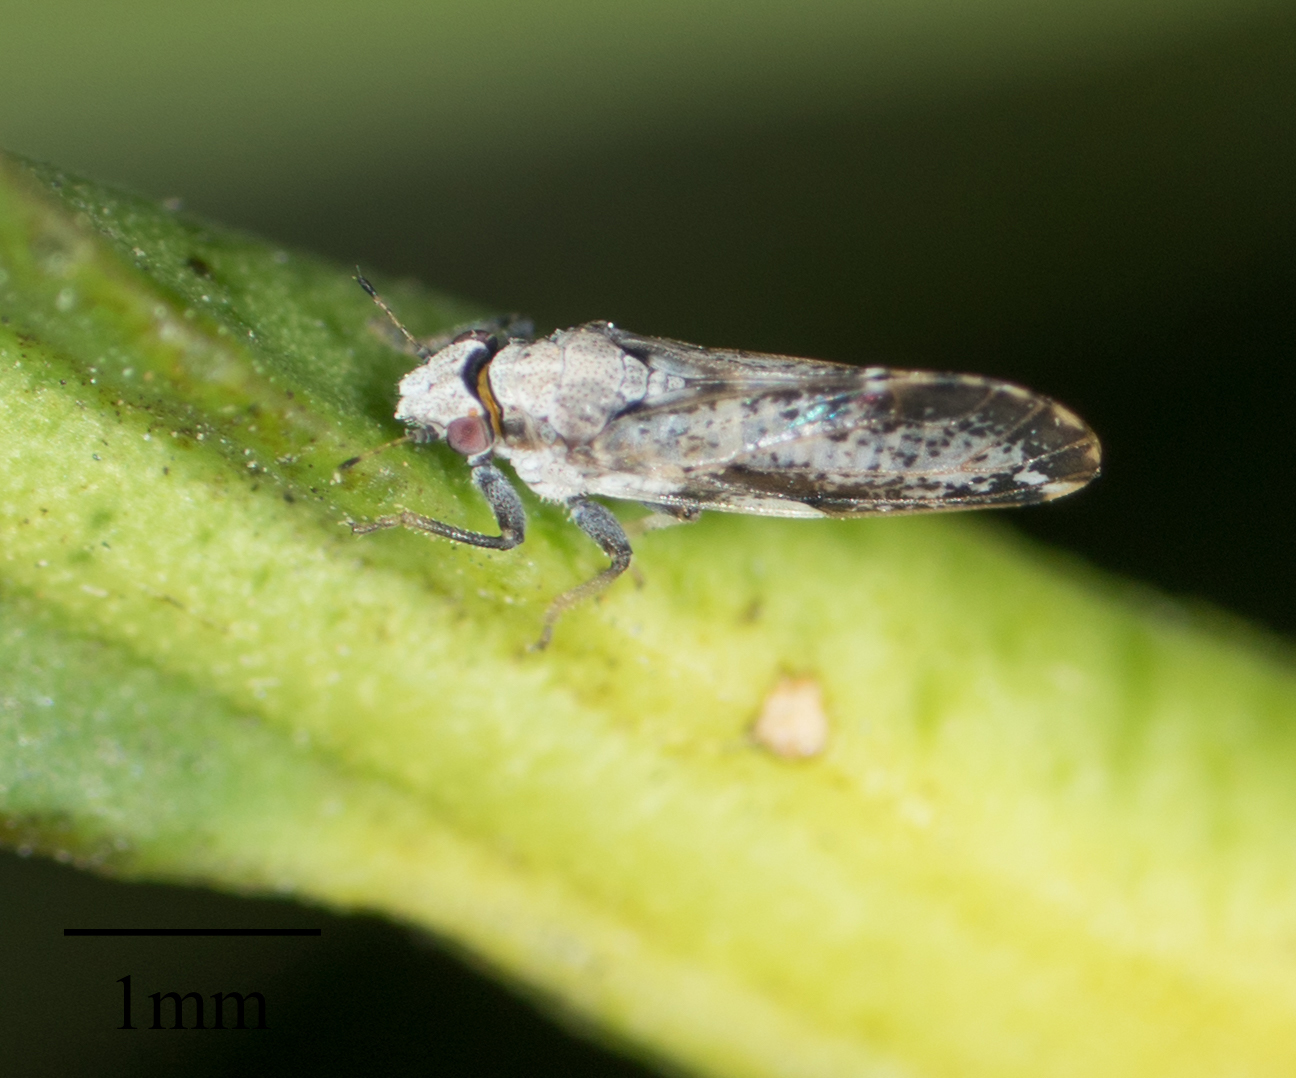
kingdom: Animalia
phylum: Arthropoda
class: Insecta
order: Hemiptera
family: Liviidae
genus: Diaphorina
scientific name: Diaphorina citri
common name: Asian citrus psyllid
